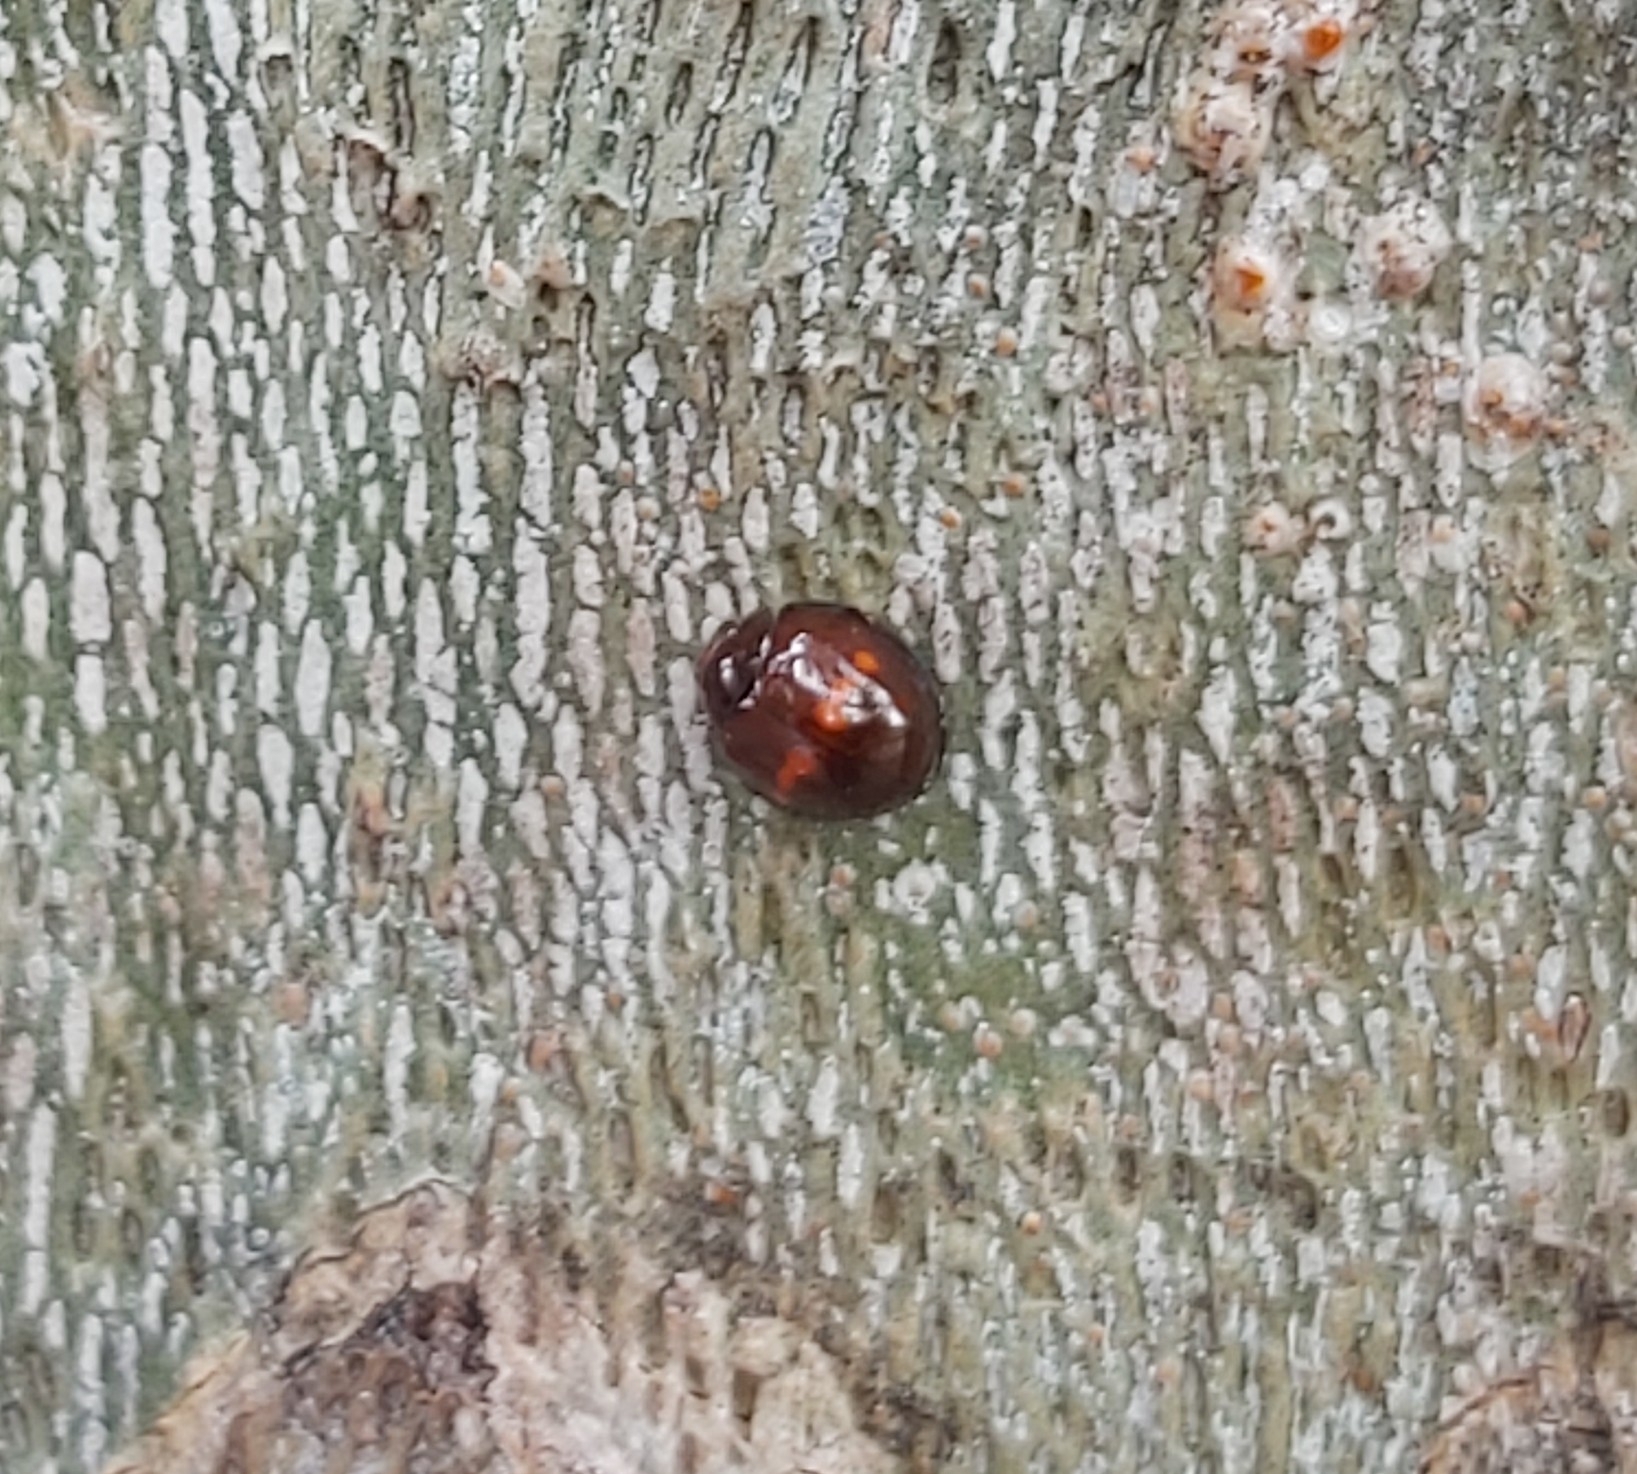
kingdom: Animalia
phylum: Arthropoda
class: Insecta
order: Coleoptera
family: Coccinellidae
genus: Chilocorus
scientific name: Chilocorus bipustulatus
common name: Heather ladybird
